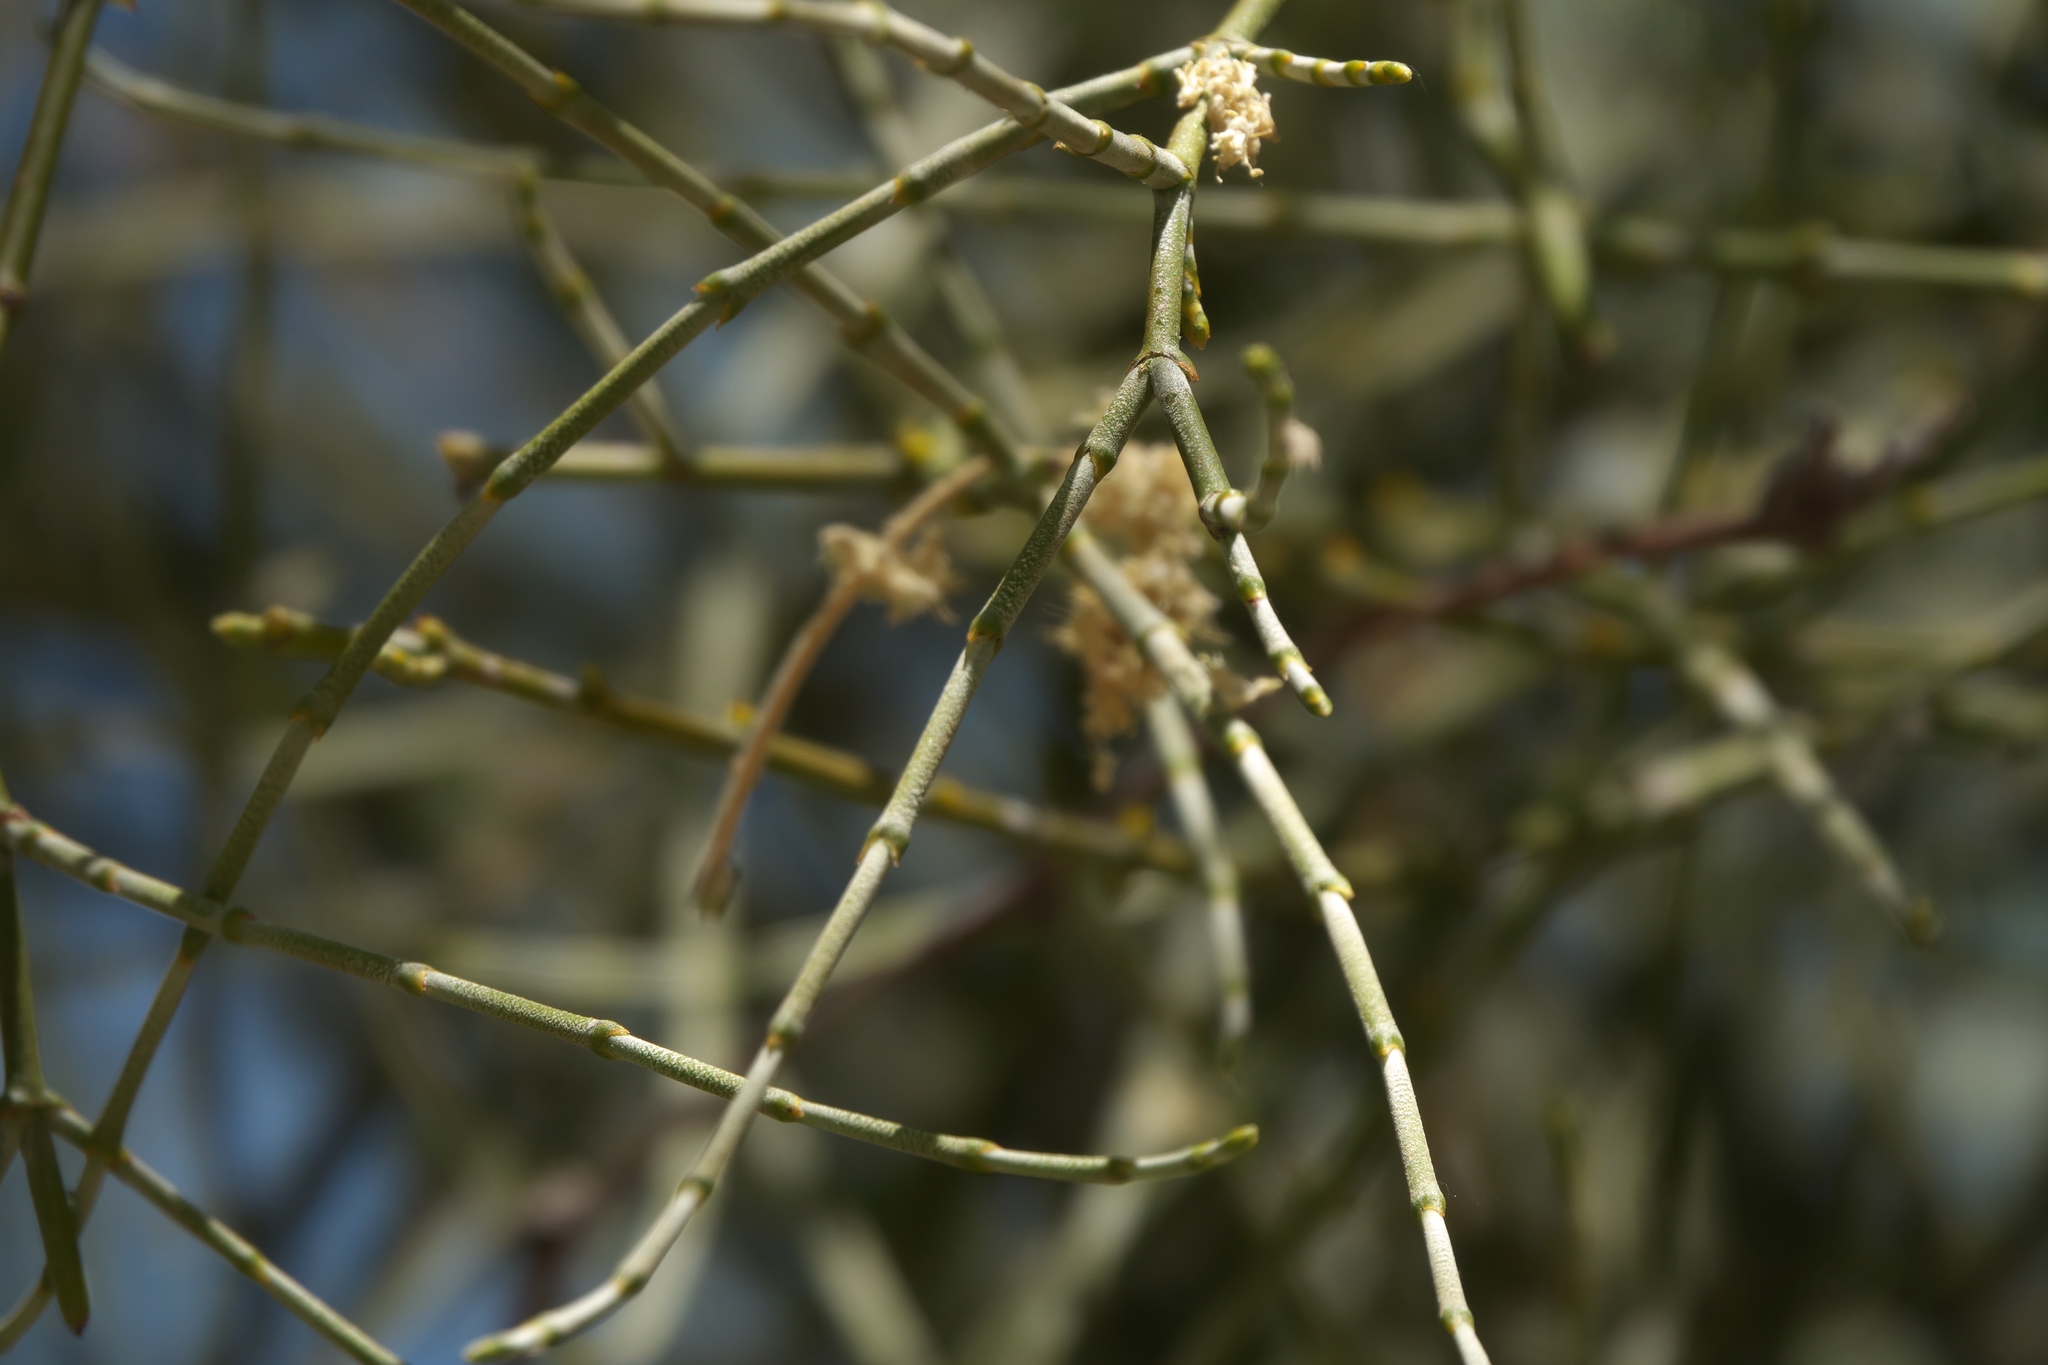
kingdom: Plantae
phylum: Tracheophyta
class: Magnoliopsida
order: Santalales
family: Viscaceae
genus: Phoradendron
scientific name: Phoradendron californicum
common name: Acacia mistletoe
